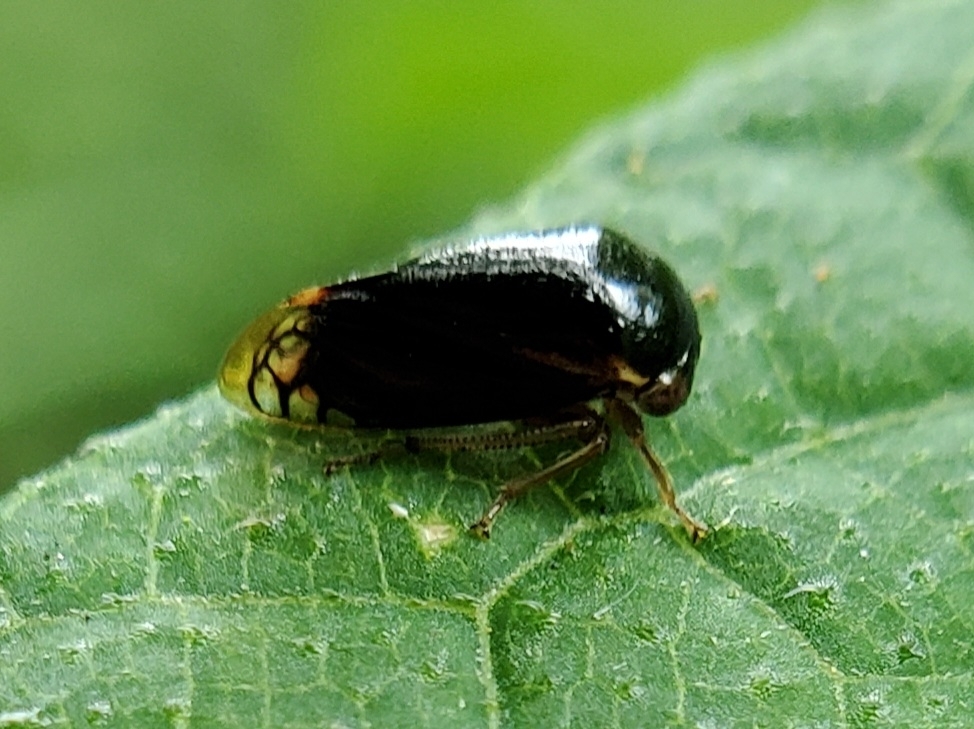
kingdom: Animalia
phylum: Arthropoda
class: Insecta
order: Hemiptera
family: Membracidae
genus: Acutalis
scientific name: Acutalis tartarea
